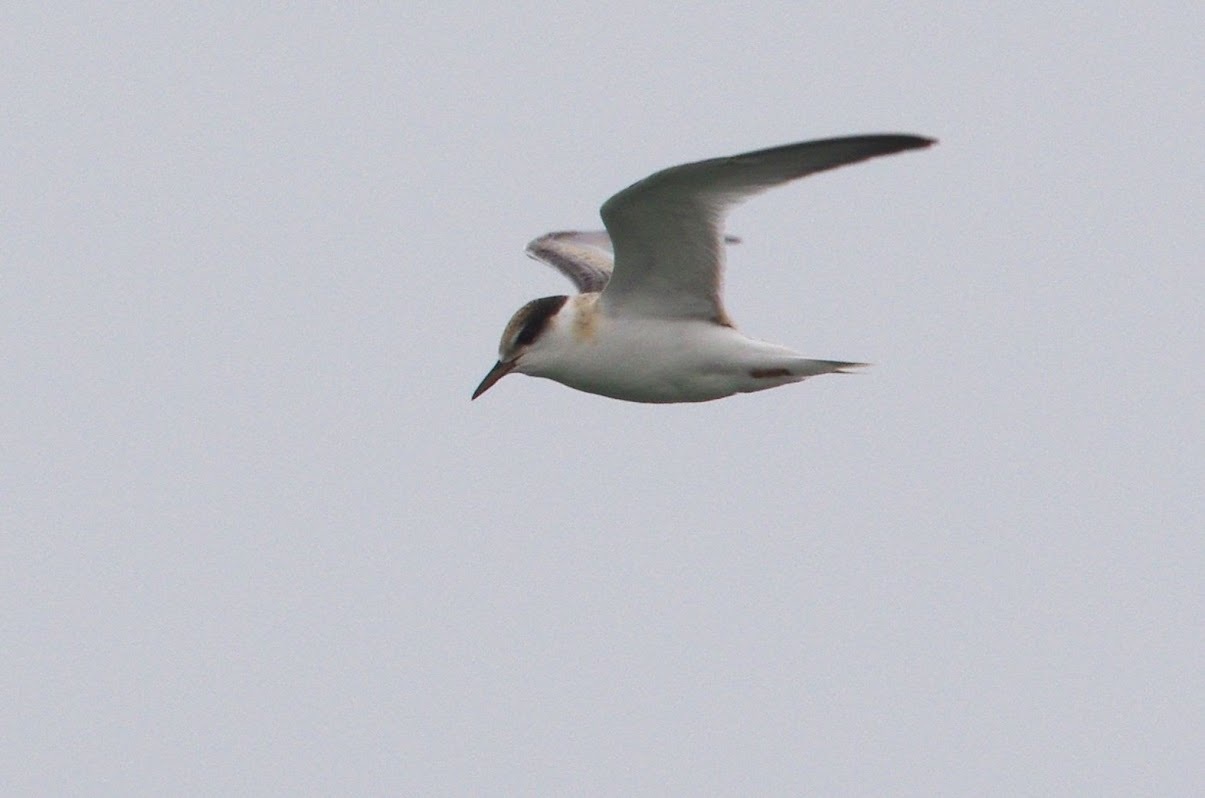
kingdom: Animalia
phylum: Chordata
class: Aves
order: Charadriiformes
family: Laridae
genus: Sternula
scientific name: Sternula albifrons
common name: Little tern
